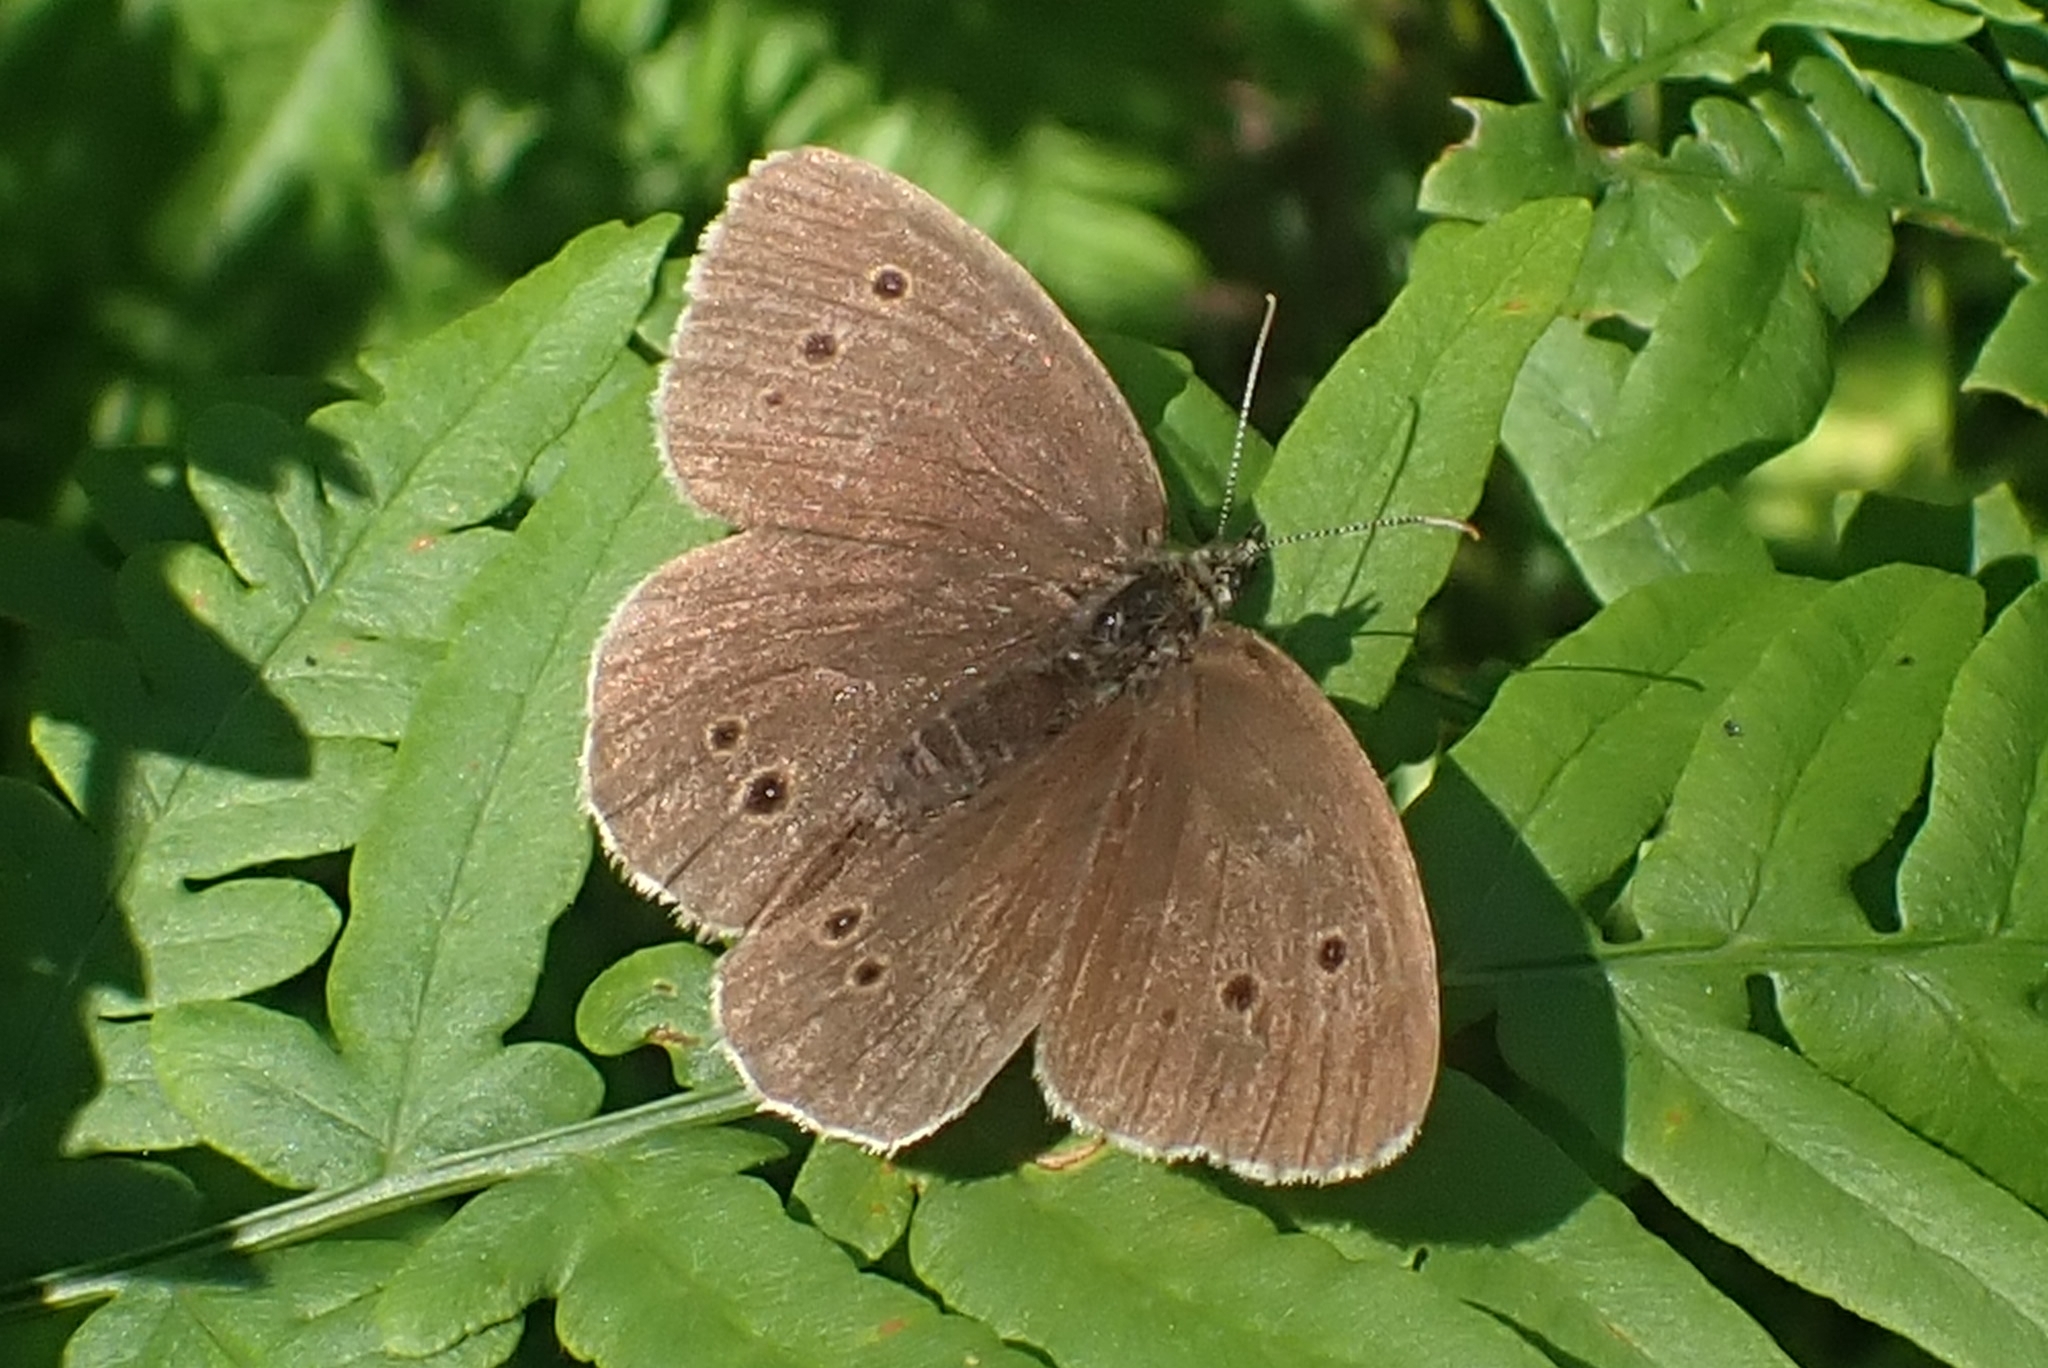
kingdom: Animalia
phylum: Arthropoda
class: Insecta
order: Lepidoptera
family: Nymphalidae
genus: Aphantopus
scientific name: Aphantopus hyperantus
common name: Ringlet
